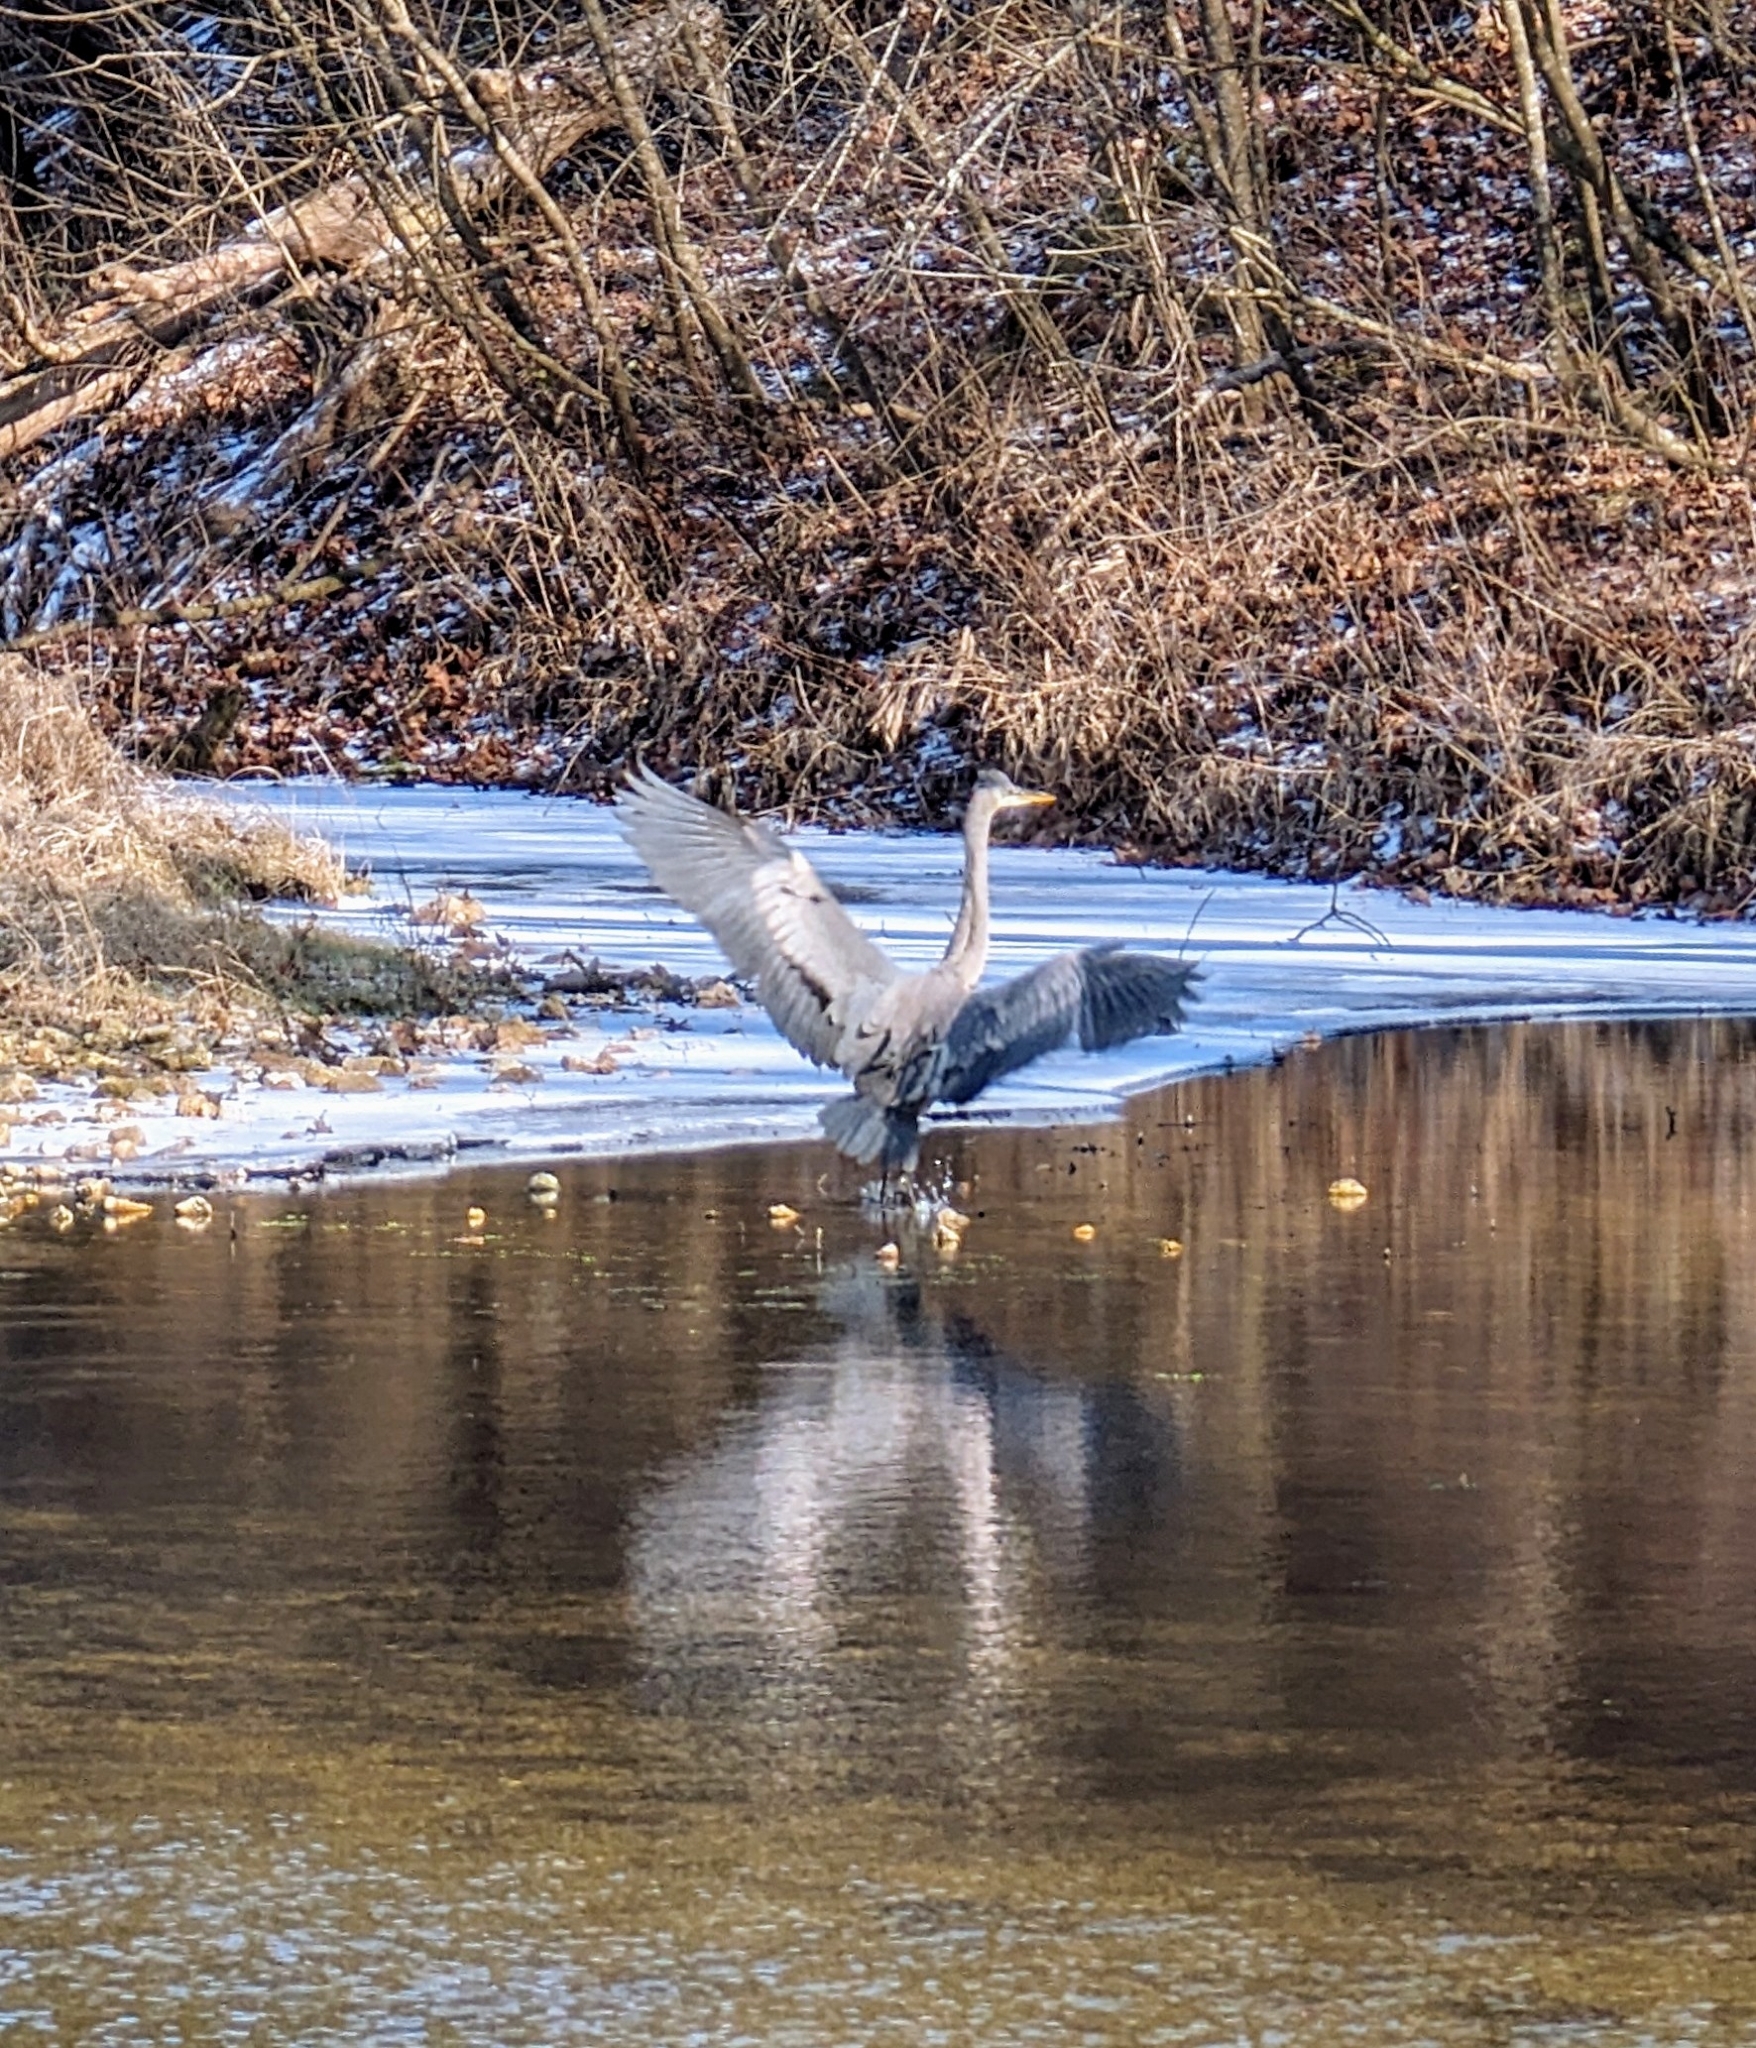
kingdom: Animalia
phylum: Chordata
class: Aves
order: Pelecaniformes
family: Ardeidae
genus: Ardea
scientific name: Ardea herodias
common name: Great blue heron
